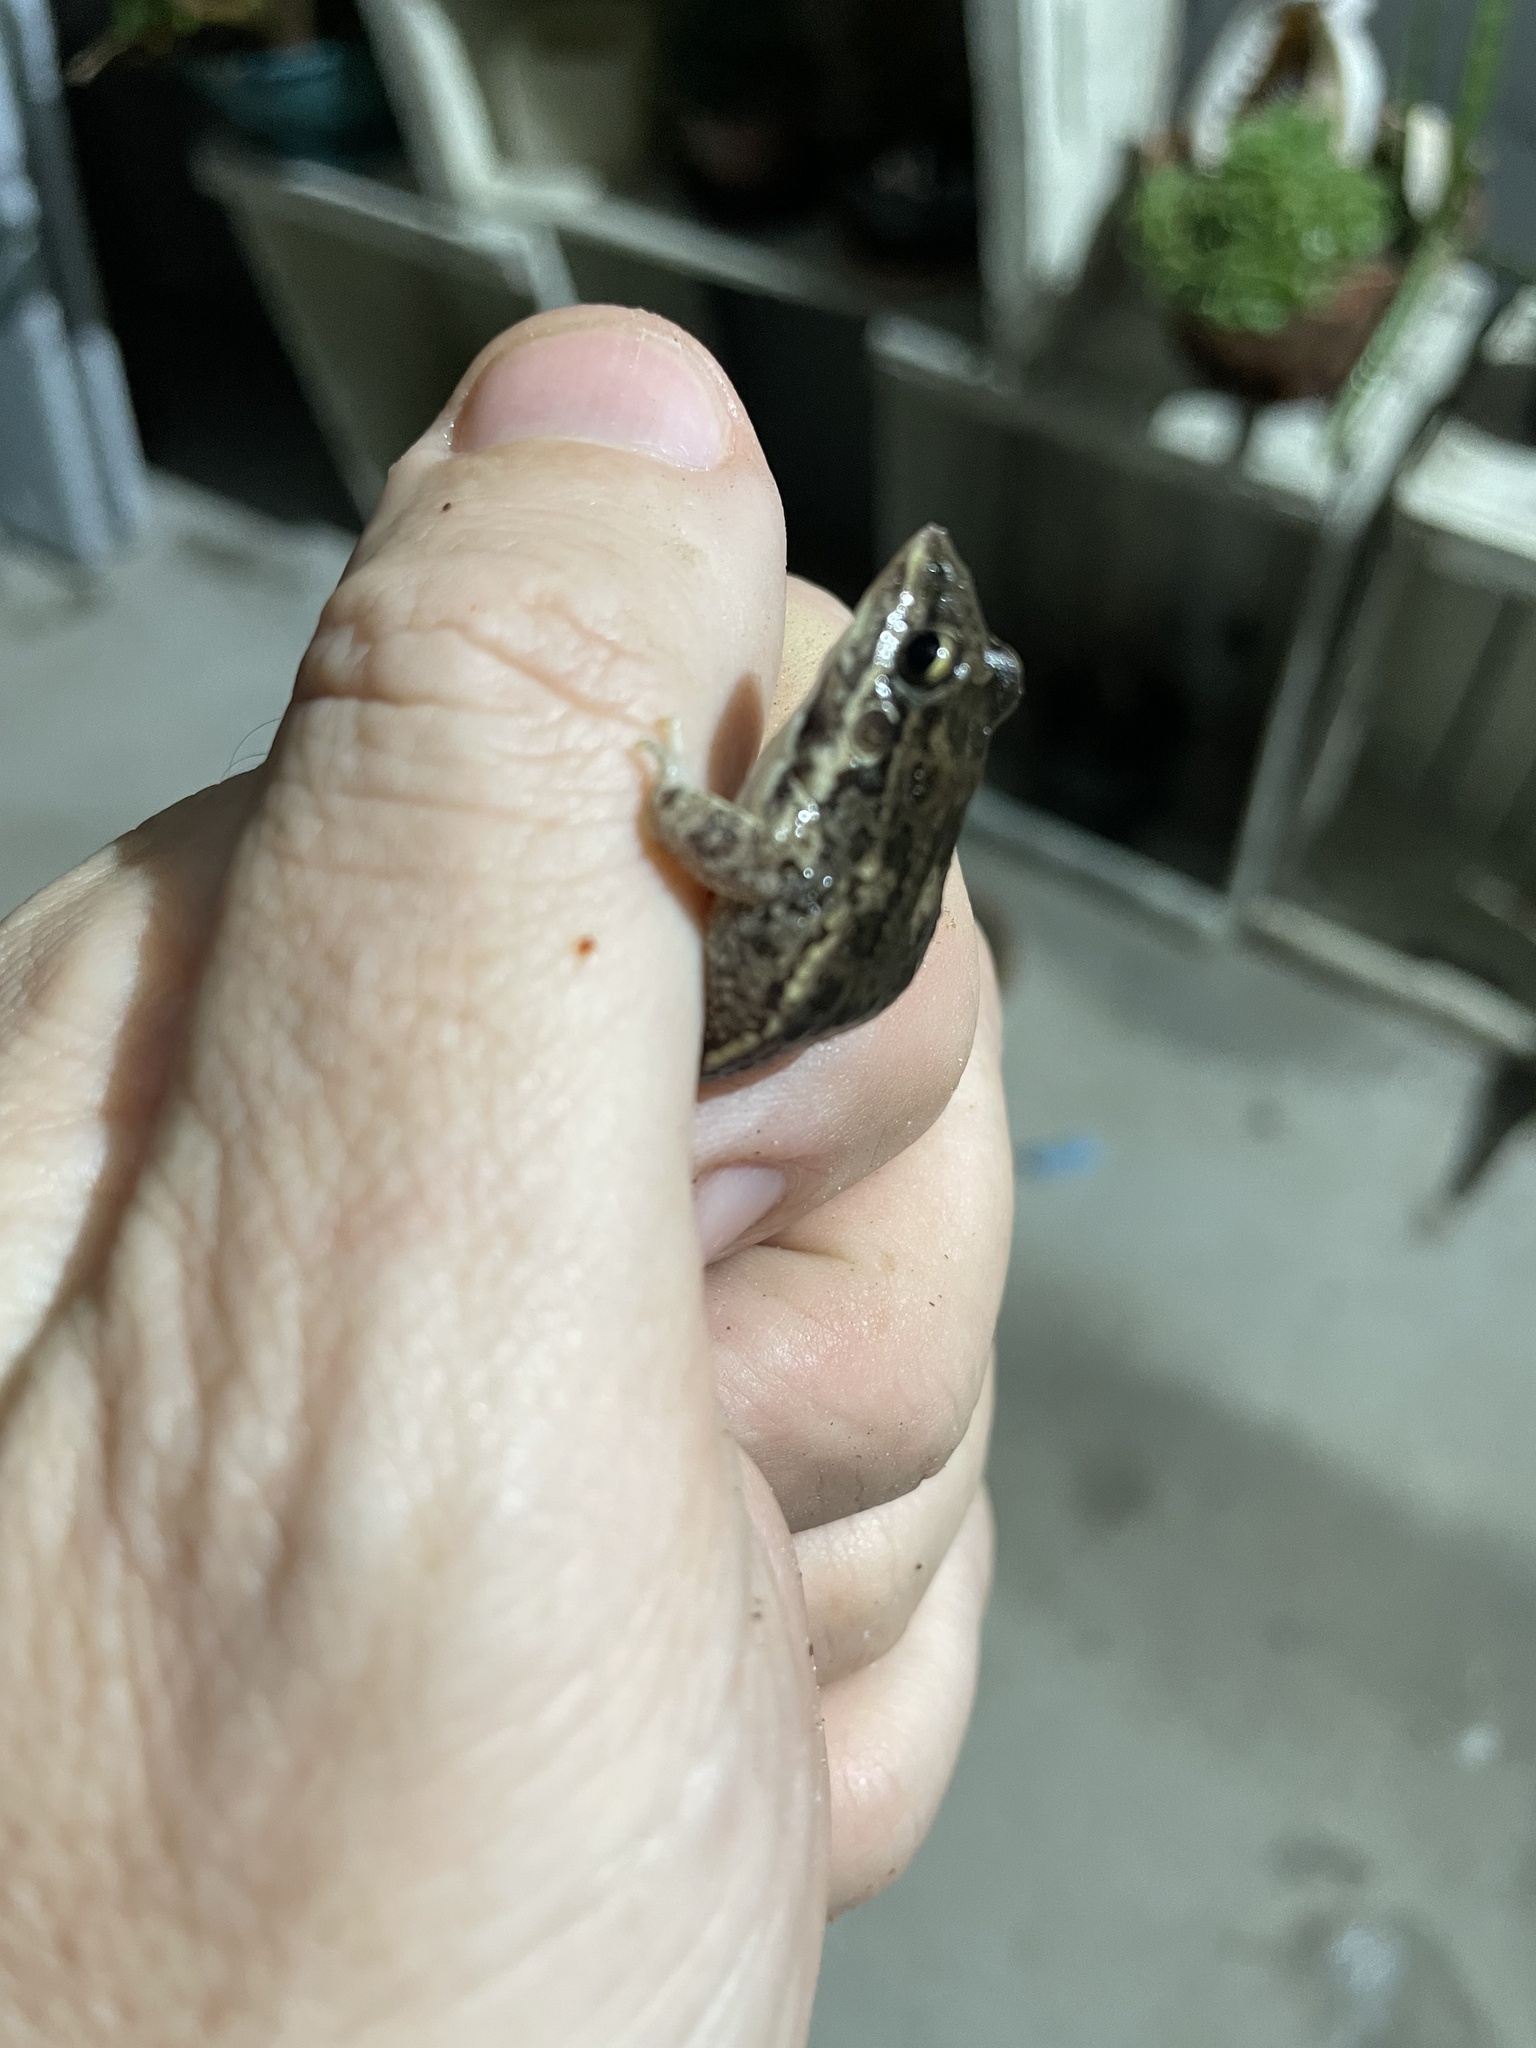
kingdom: Animalia
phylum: Chordata
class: Amphibia
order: Anura
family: Leptodactylidae
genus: Leptodactylus
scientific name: Leptodactylus latinasus
